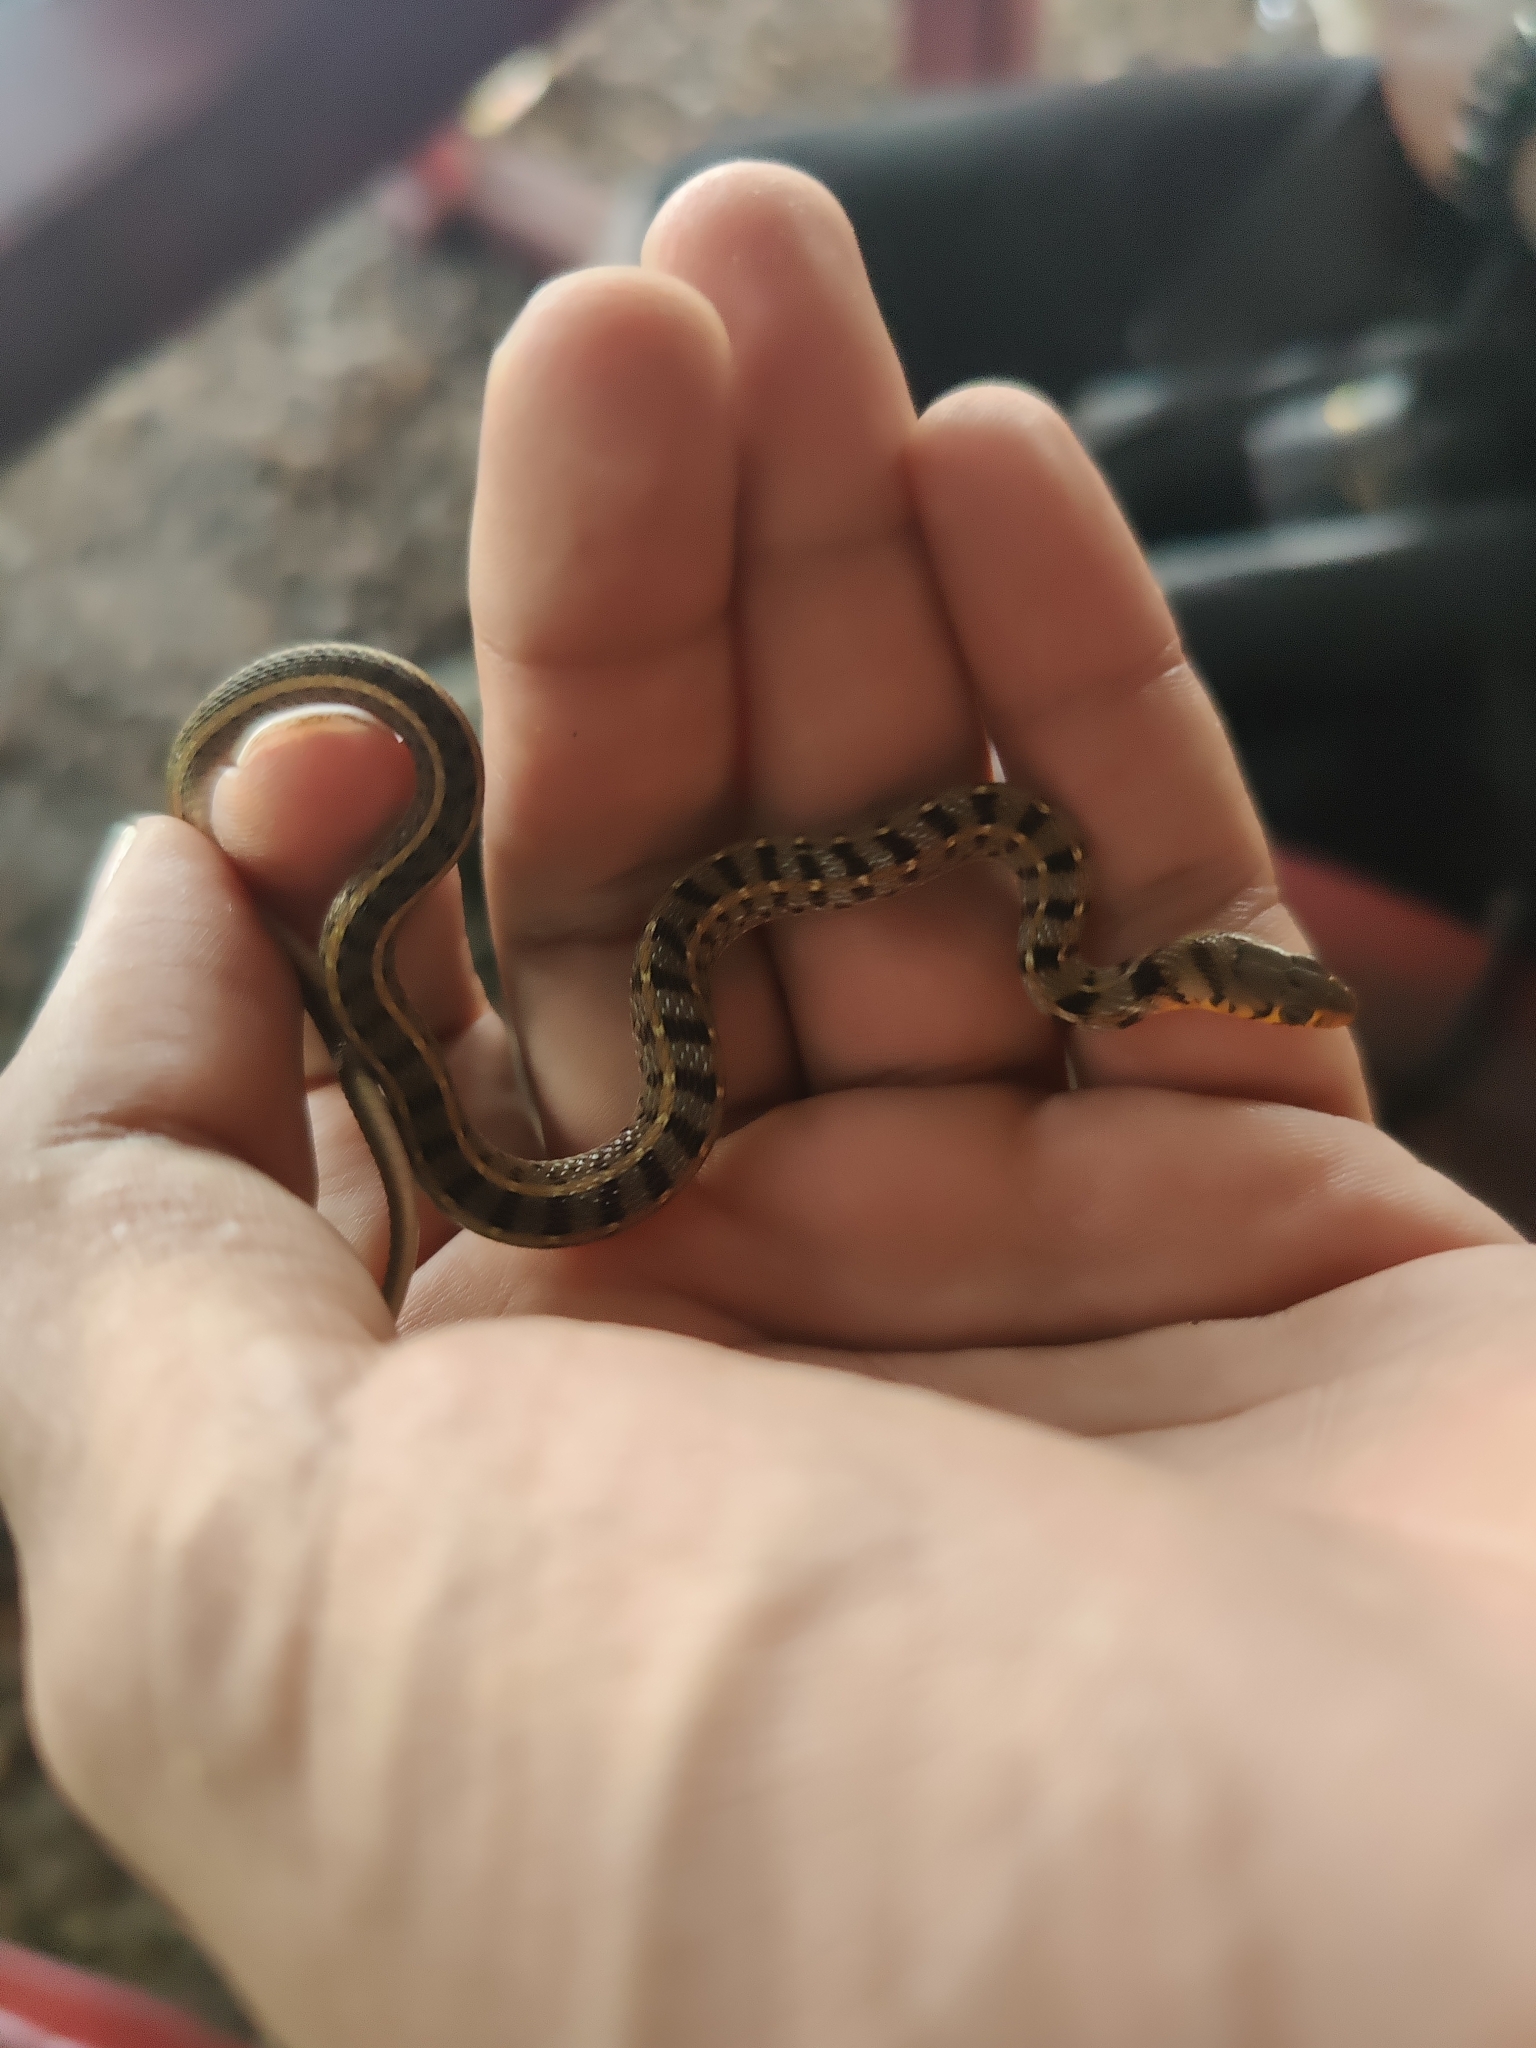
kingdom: Animalia
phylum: Chordata
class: Squamata
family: Colubridae
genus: Amphiesma
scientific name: Amphiesma stolatum
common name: Buff striped keelback
